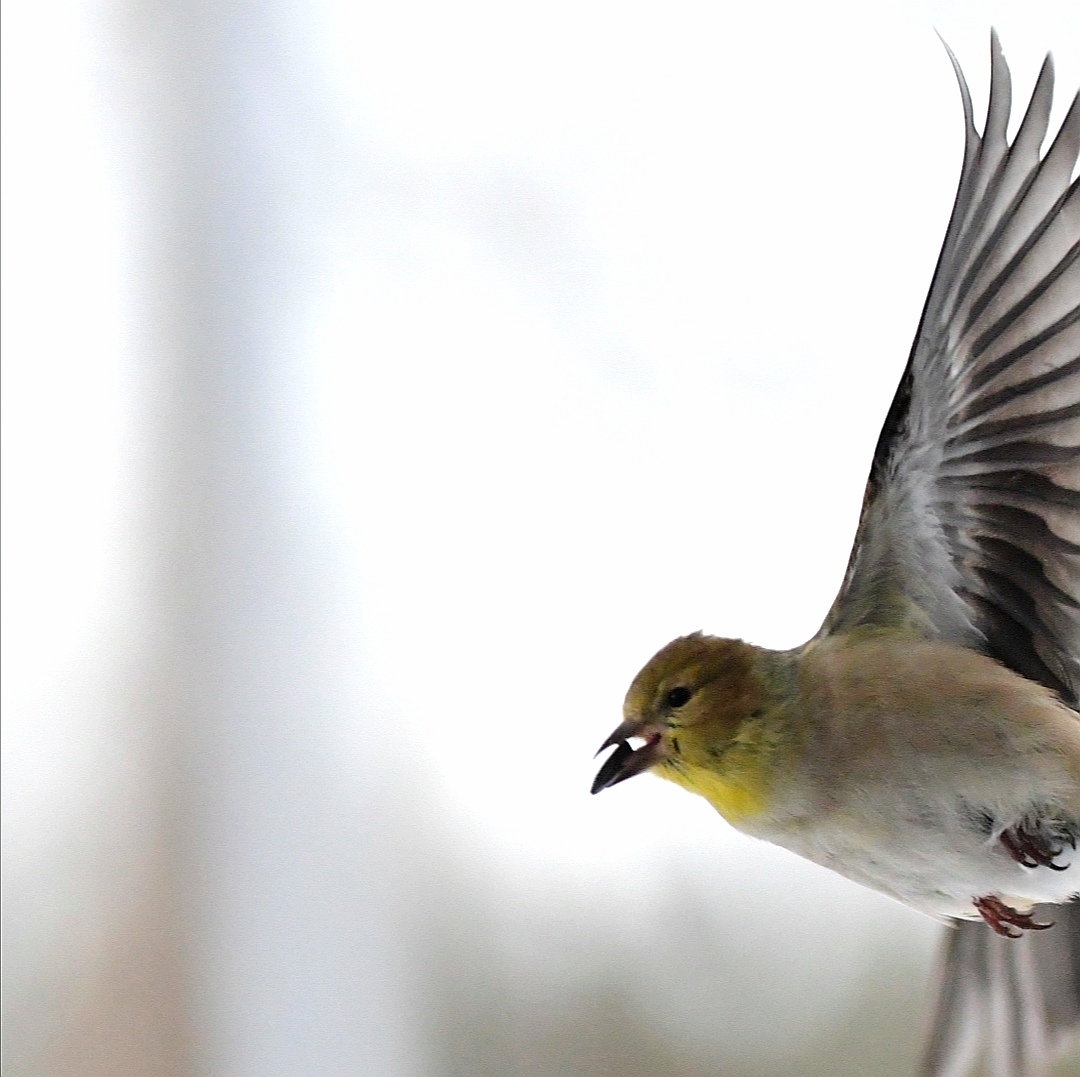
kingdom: Animalia
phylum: Chordata
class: Aves
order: Passeriformes
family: Fringillidae
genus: Spinus
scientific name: Spinus tristis
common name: American goldfinch
